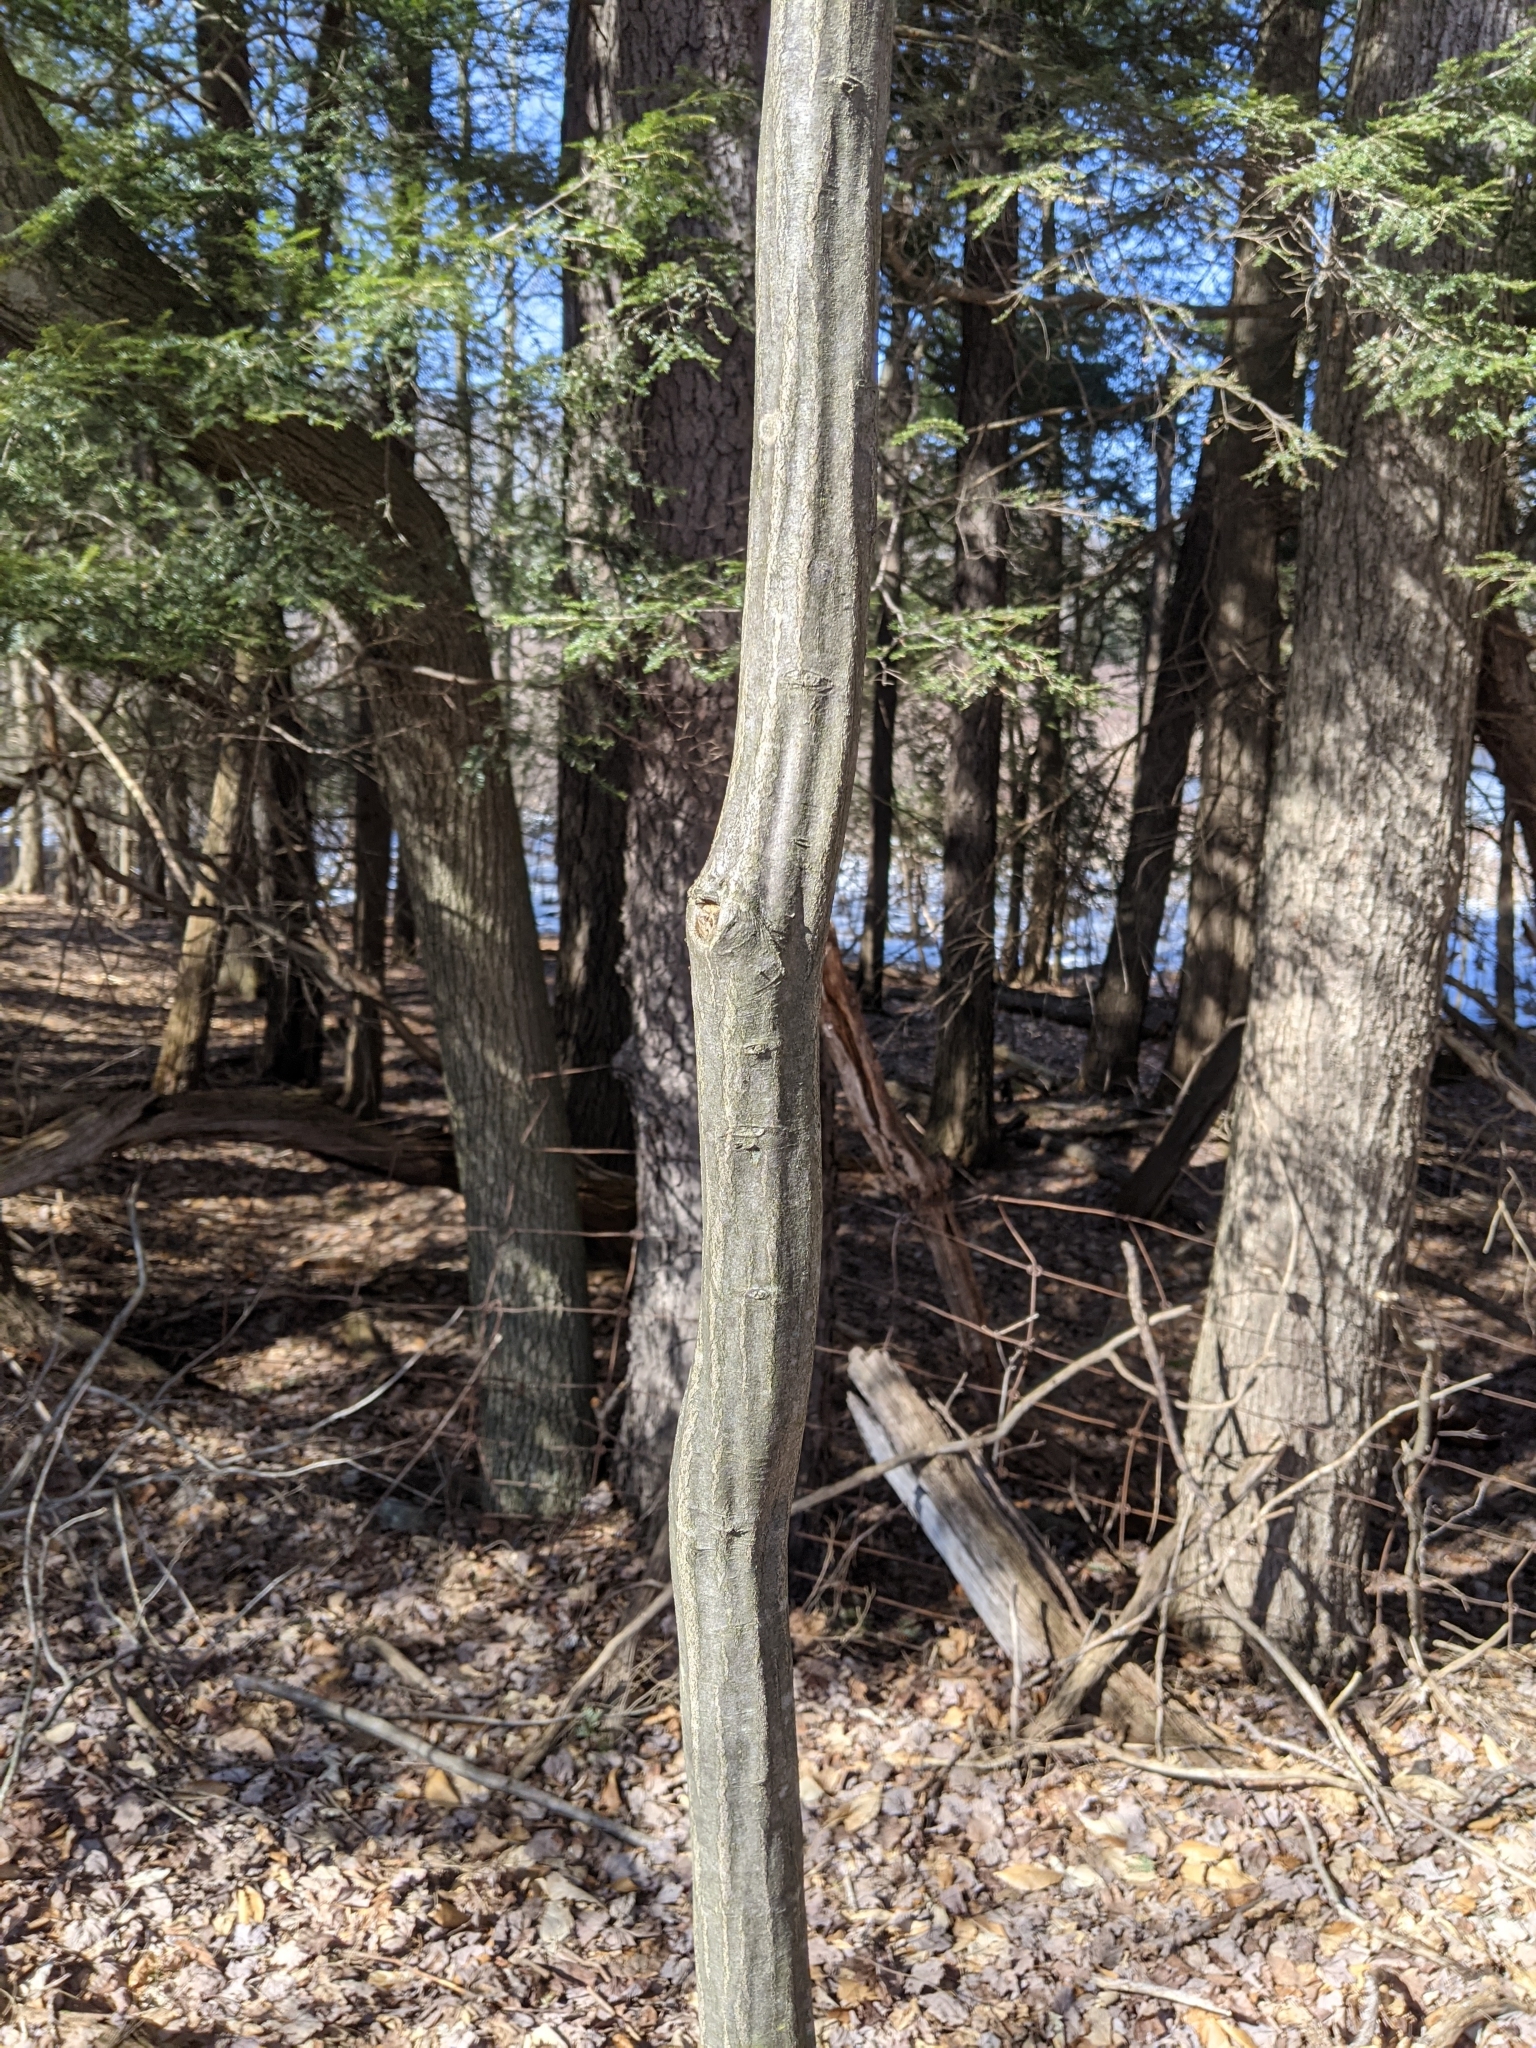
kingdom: Plantae
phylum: Tracheophyta
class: Magnoliopsida
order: Fagales
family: Betulaceae
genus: Carpinus
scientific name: Carpinus caroliniana
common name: American hornbeam
